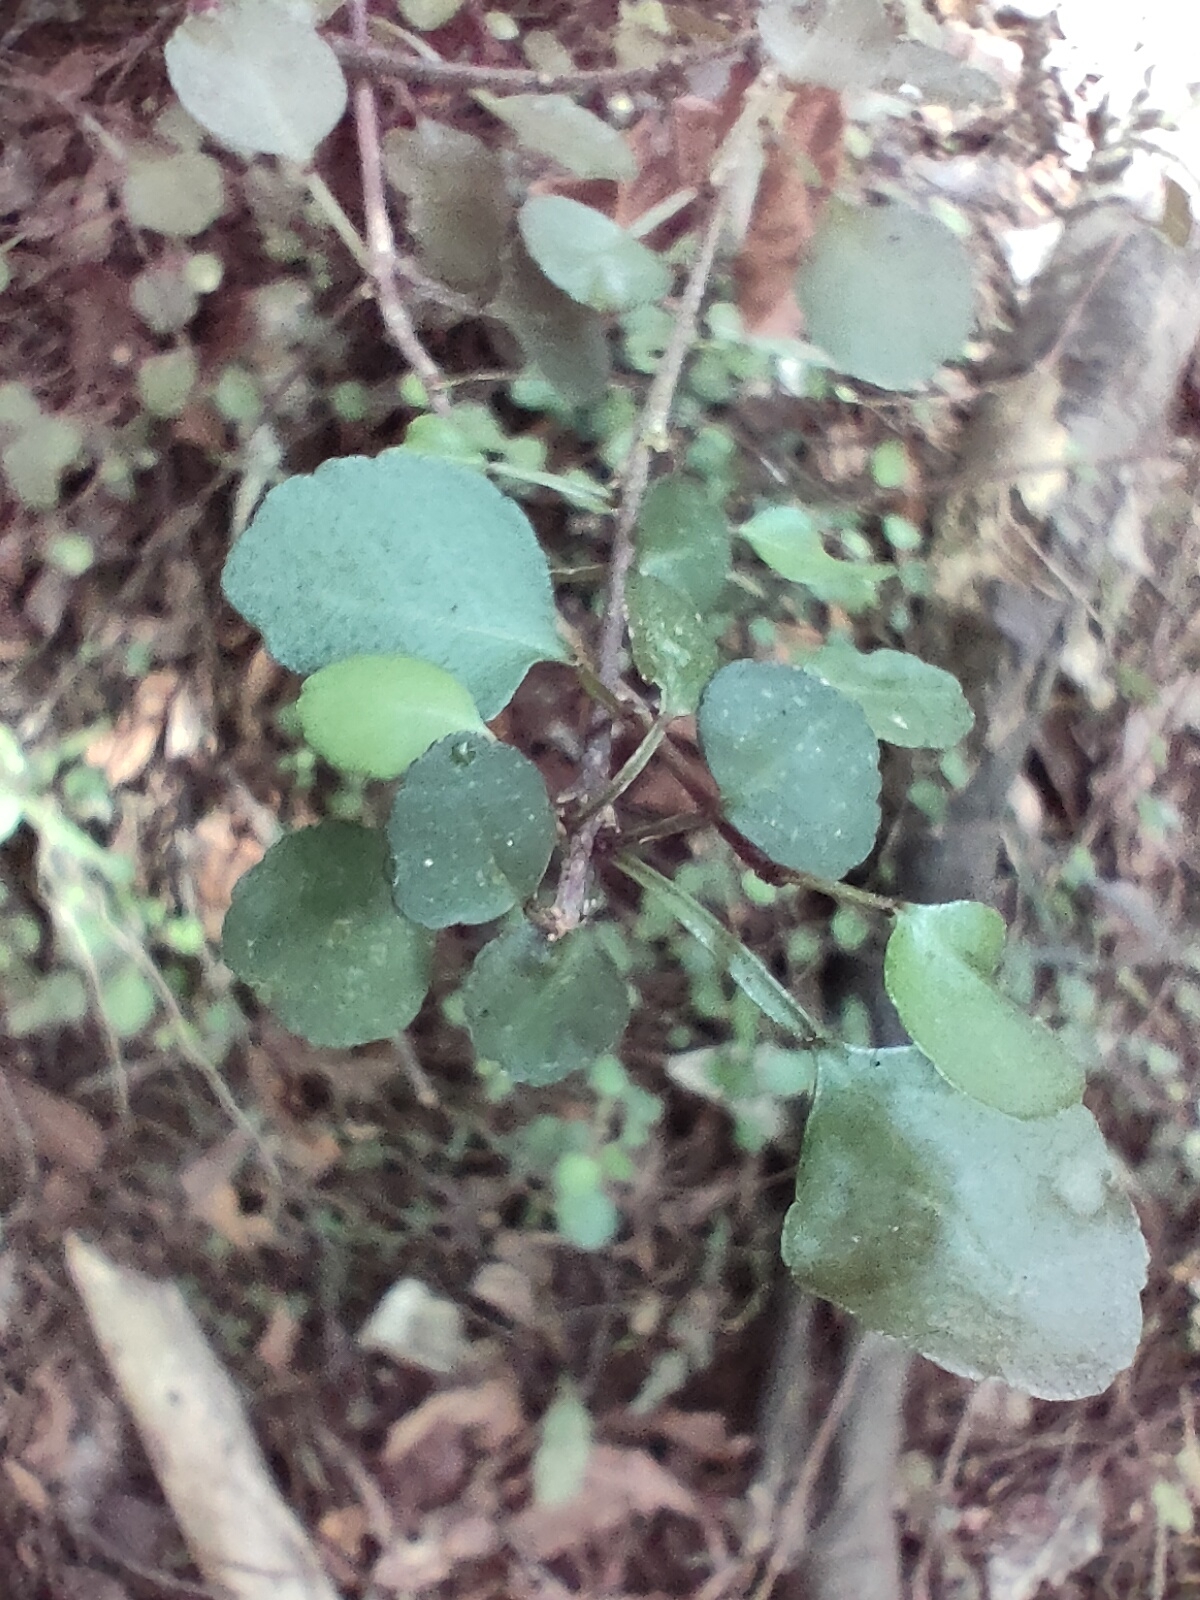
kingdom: Plantae
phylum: Tracheophyta
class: Magnoliopsida
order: Sapindales
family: Rutaceae
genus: Melicope
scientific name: Melicope simplex
